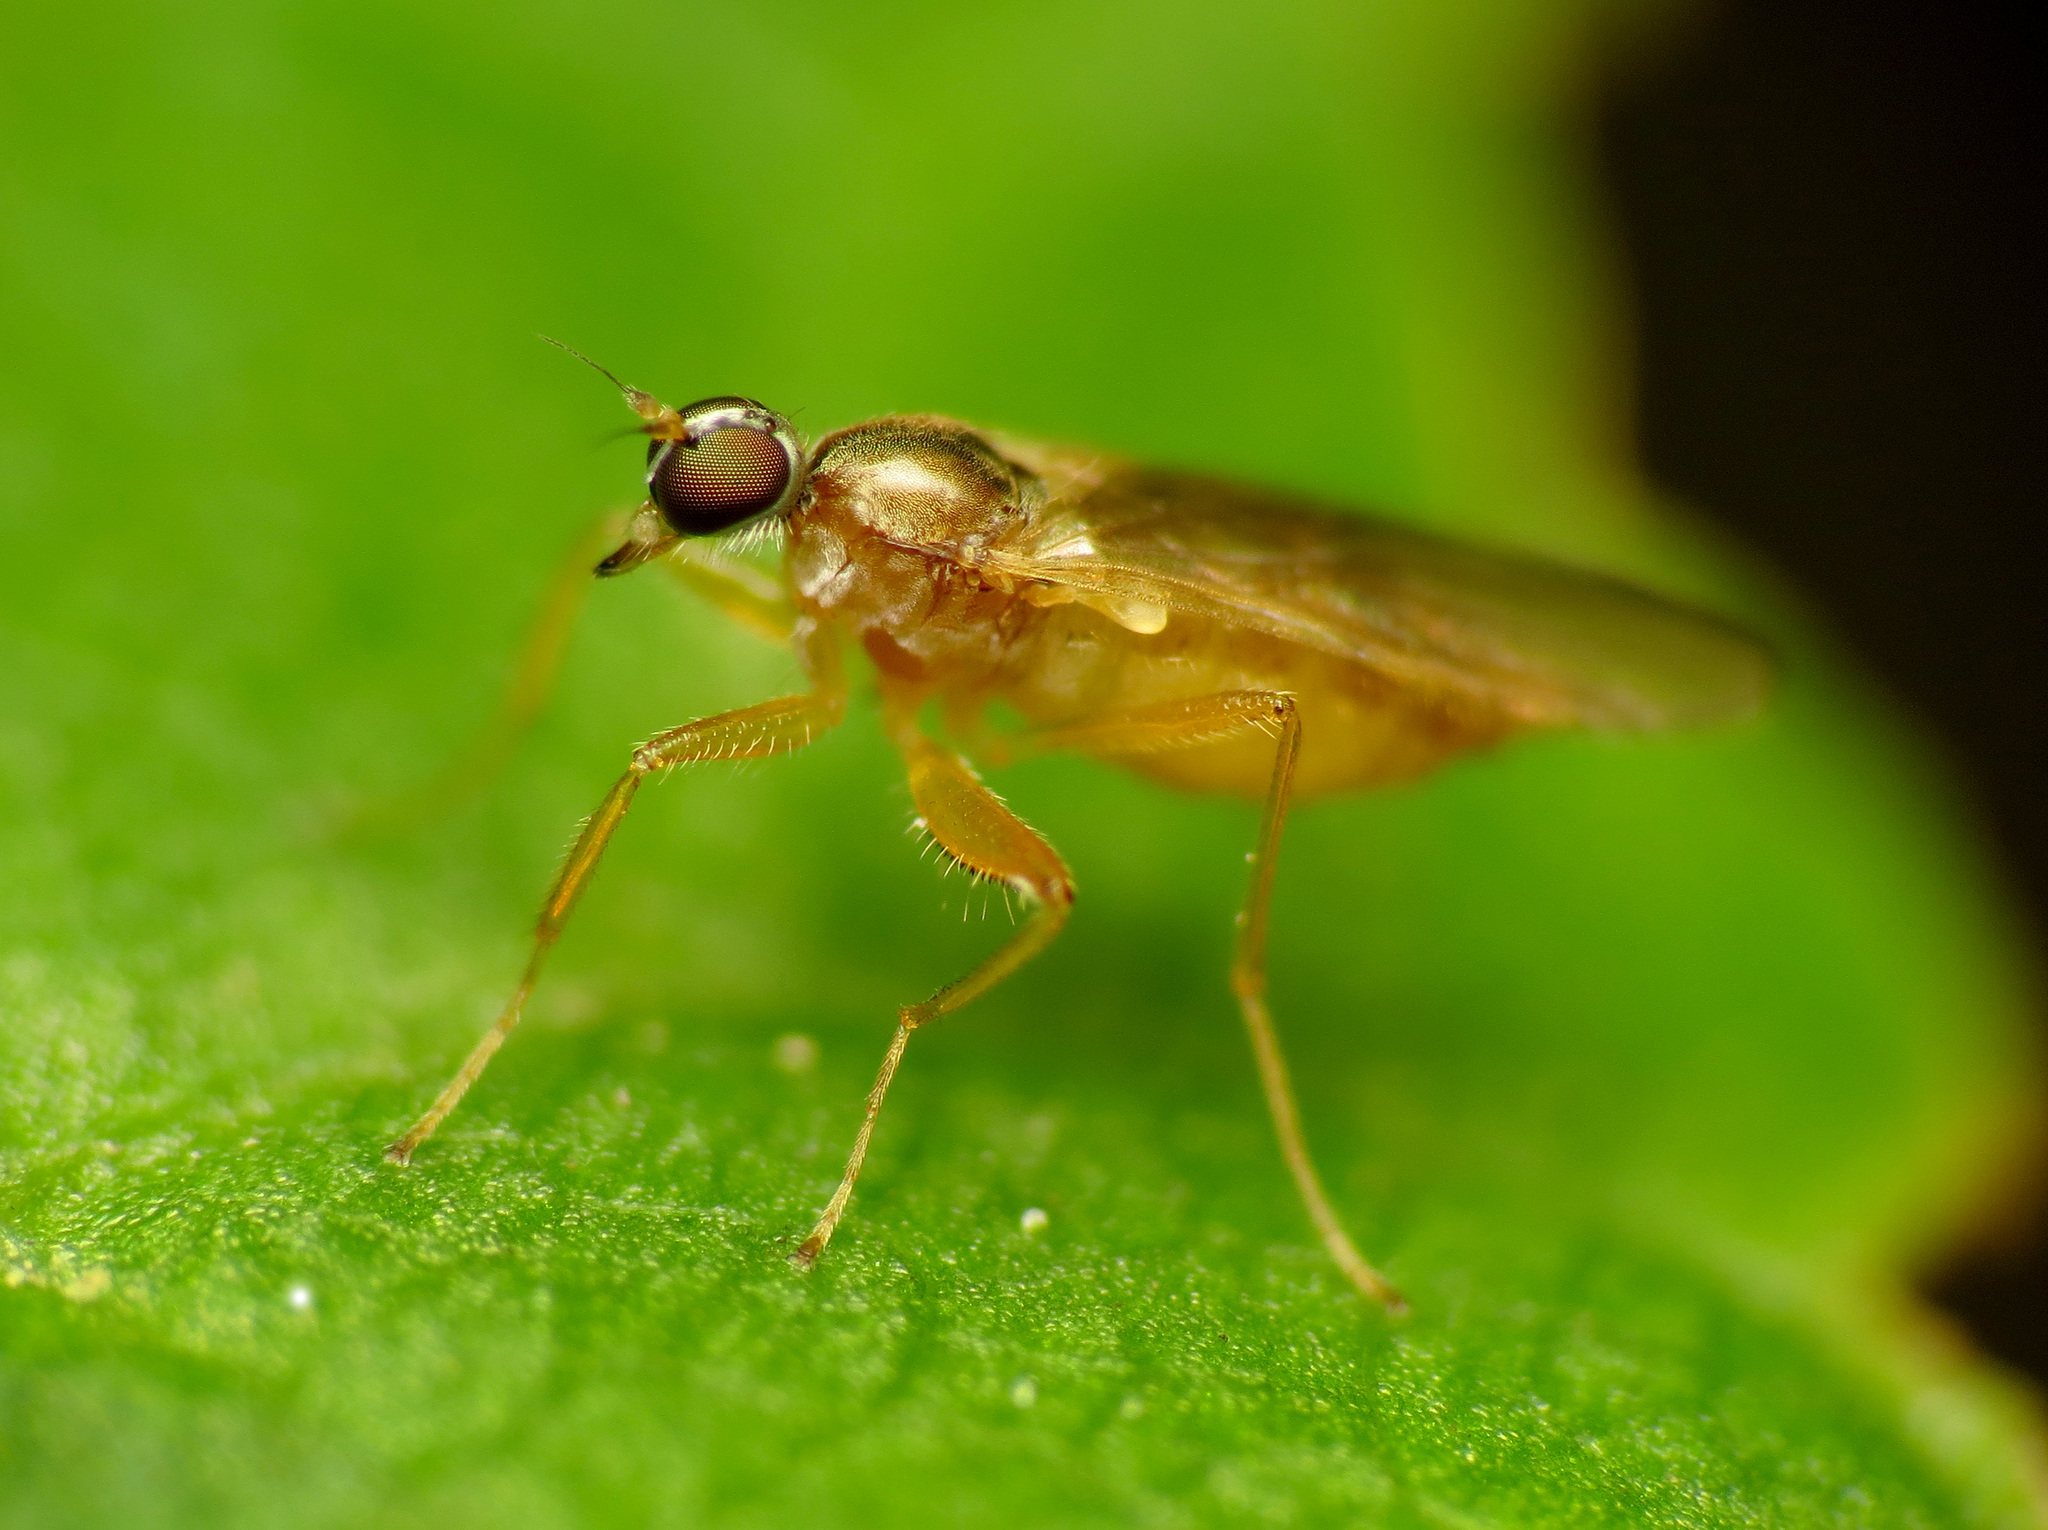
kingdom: Animalia
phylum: Arthropoda
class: Insecta
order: Diptera
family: Hybotidae
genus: Platypalpus
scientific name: Platypalpus rubefactus
